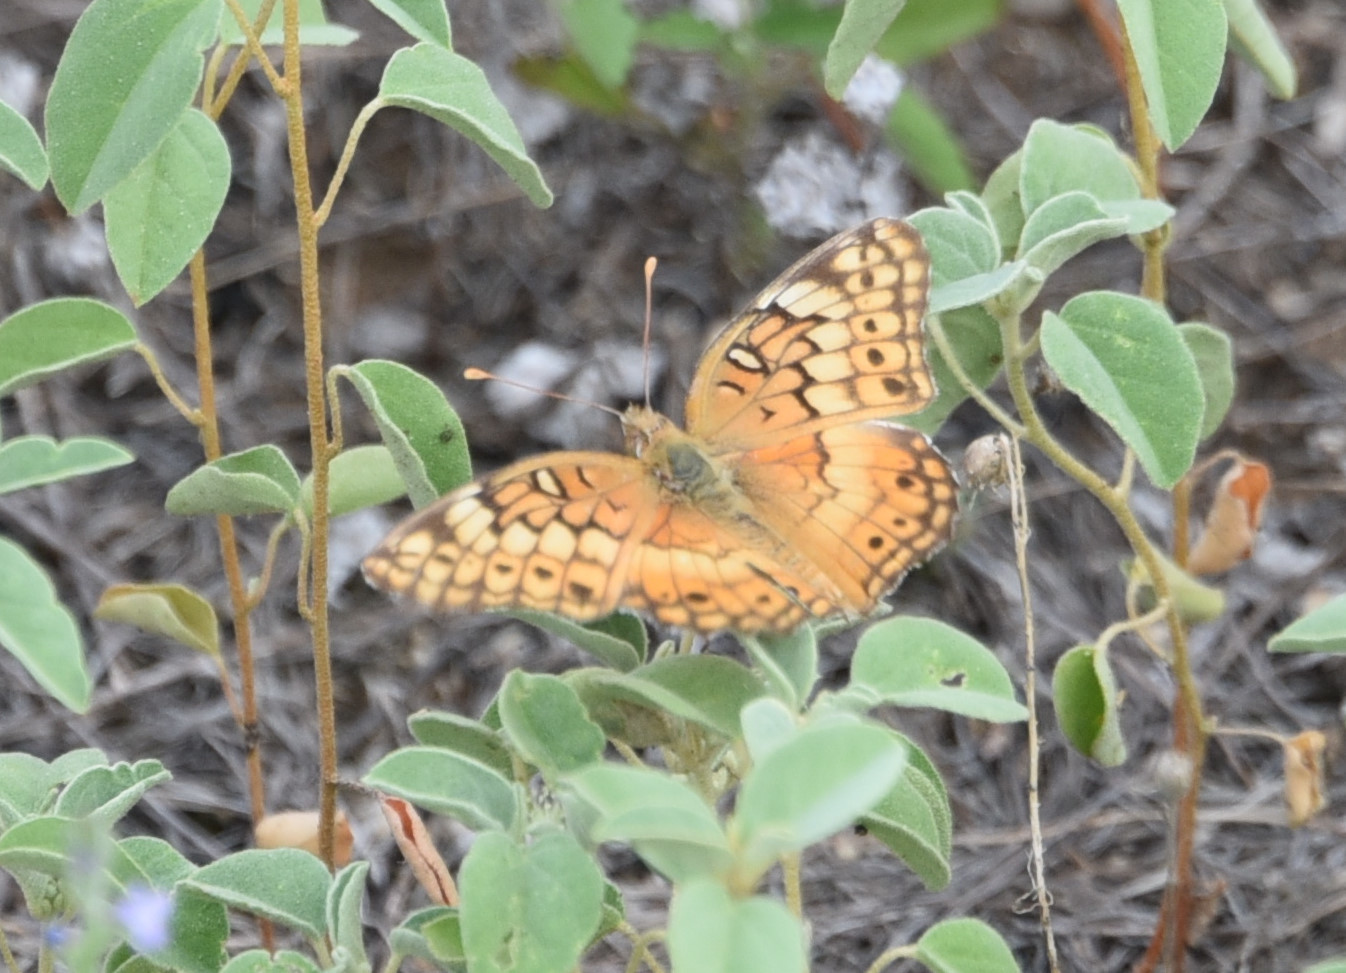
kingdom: Animalia
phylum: Arthropoda
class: Insecta
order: Lepidoptera
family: Nymphalidae
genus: Euptoieta
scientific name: Euptoieta claudia
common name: Variegated fritillary
